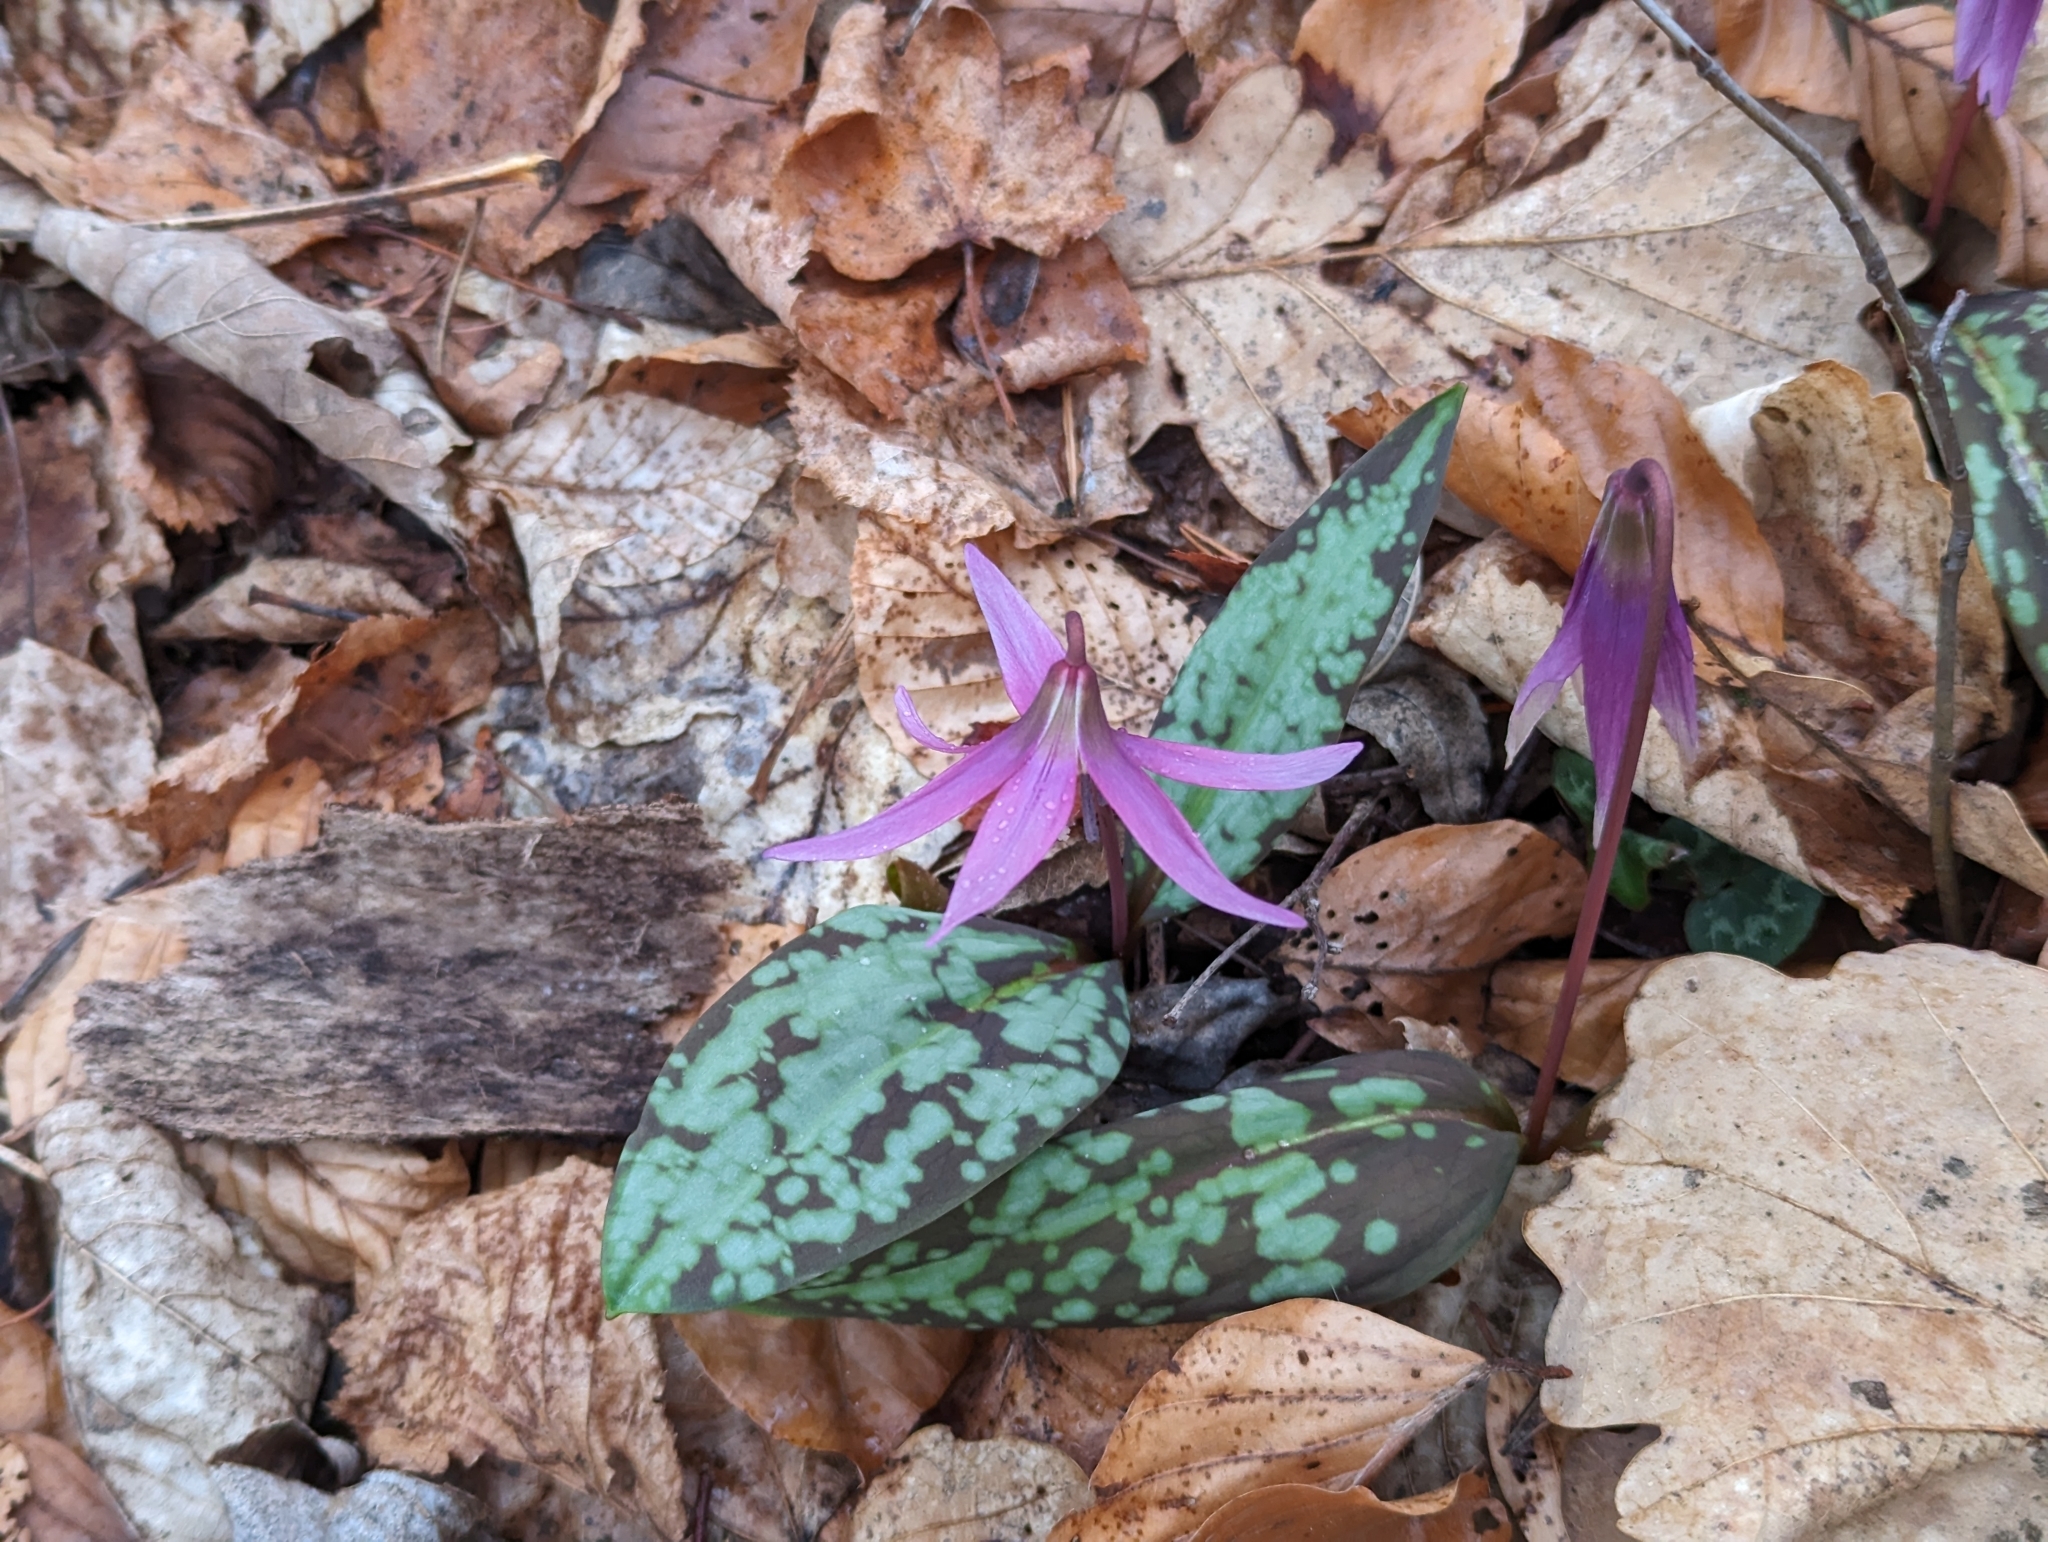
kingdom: Plantae
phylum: Tracheophyta
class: Liliopsida
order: Liliales
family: Liliaceae
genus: Erythronium
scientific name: Erythronium dens-canis
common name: Dog's-tooth-violet
